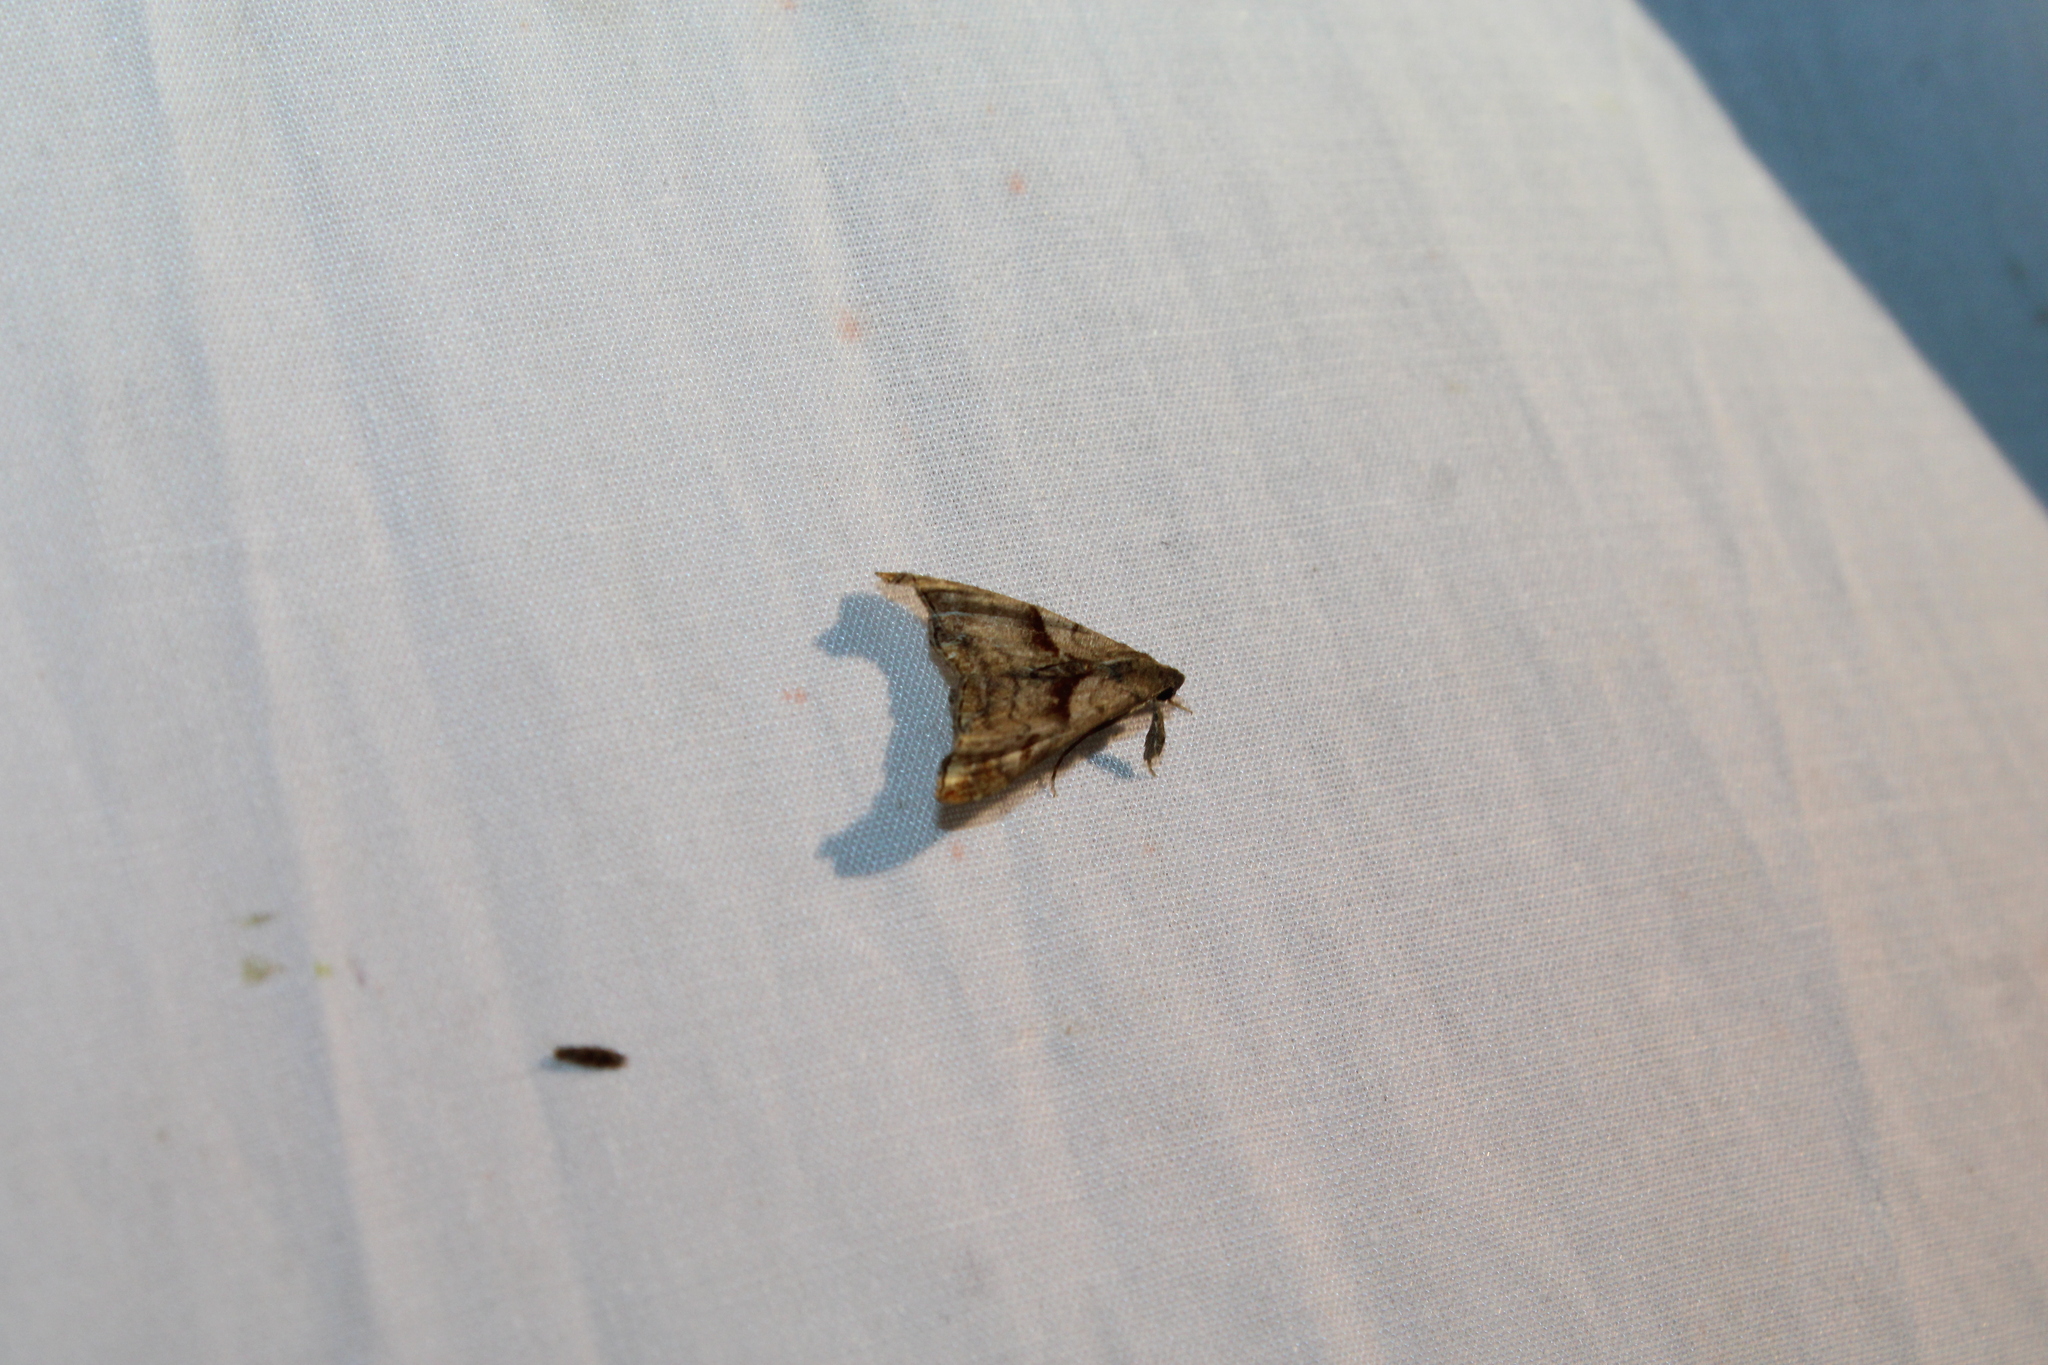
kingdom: Animalia
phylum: Arthropoda
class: Insecta
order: Lepidoptera
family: Erebidae
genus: Palthis
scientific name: Palthis angulalis
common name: Dark-spotted palthis moth
